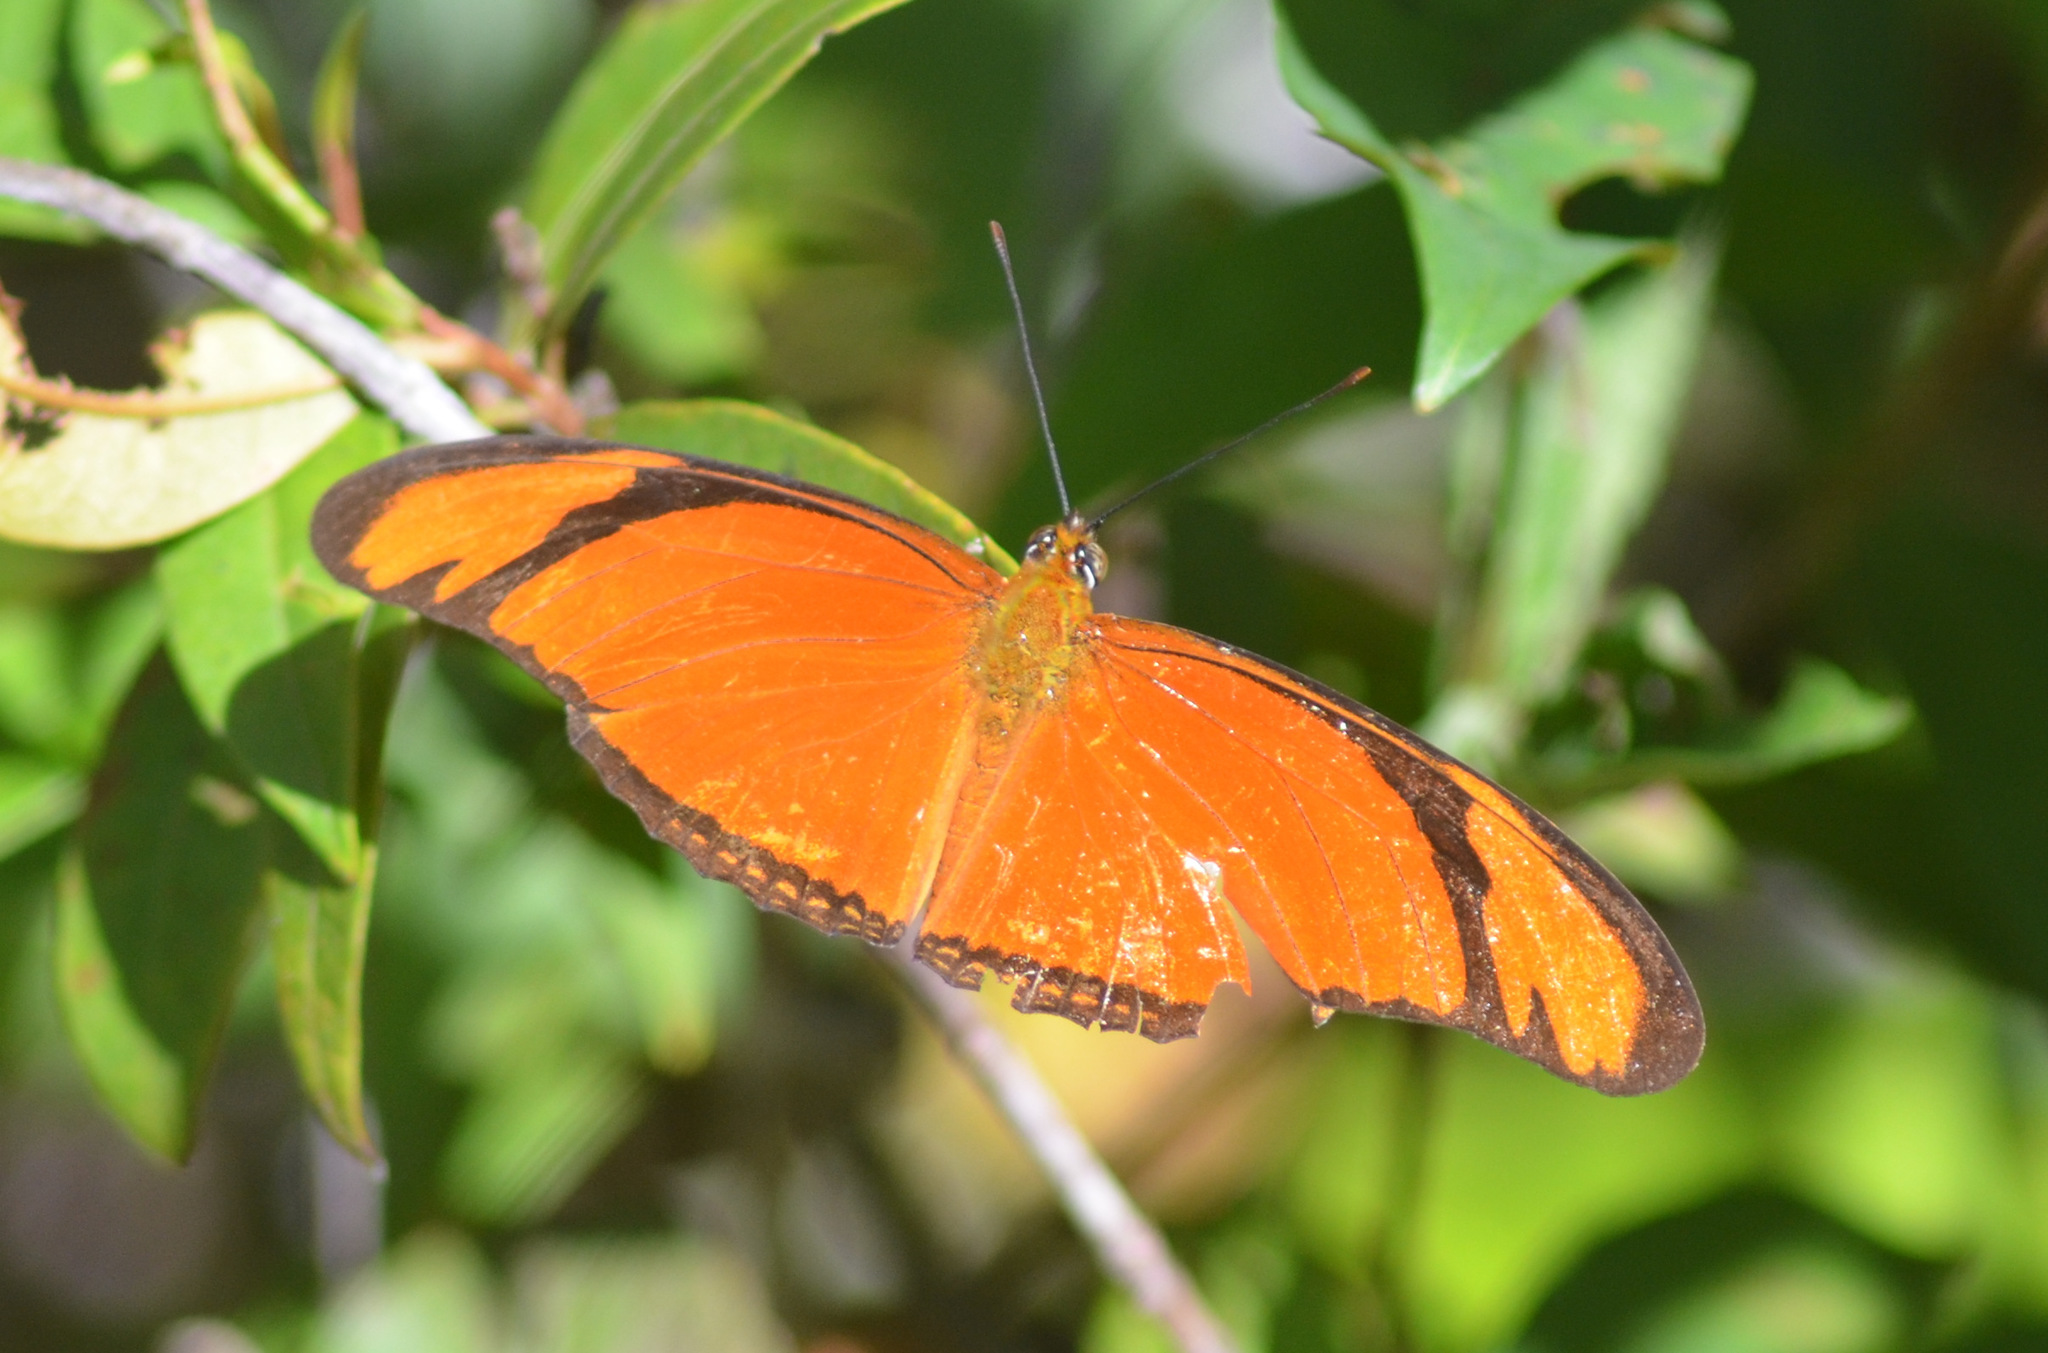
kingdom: Animalia
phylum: Arthropoda
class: Insecta
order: Lepidoptera
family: Nymphalidae
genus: Dryas
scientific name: Dryas iulia
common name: Flambeau
